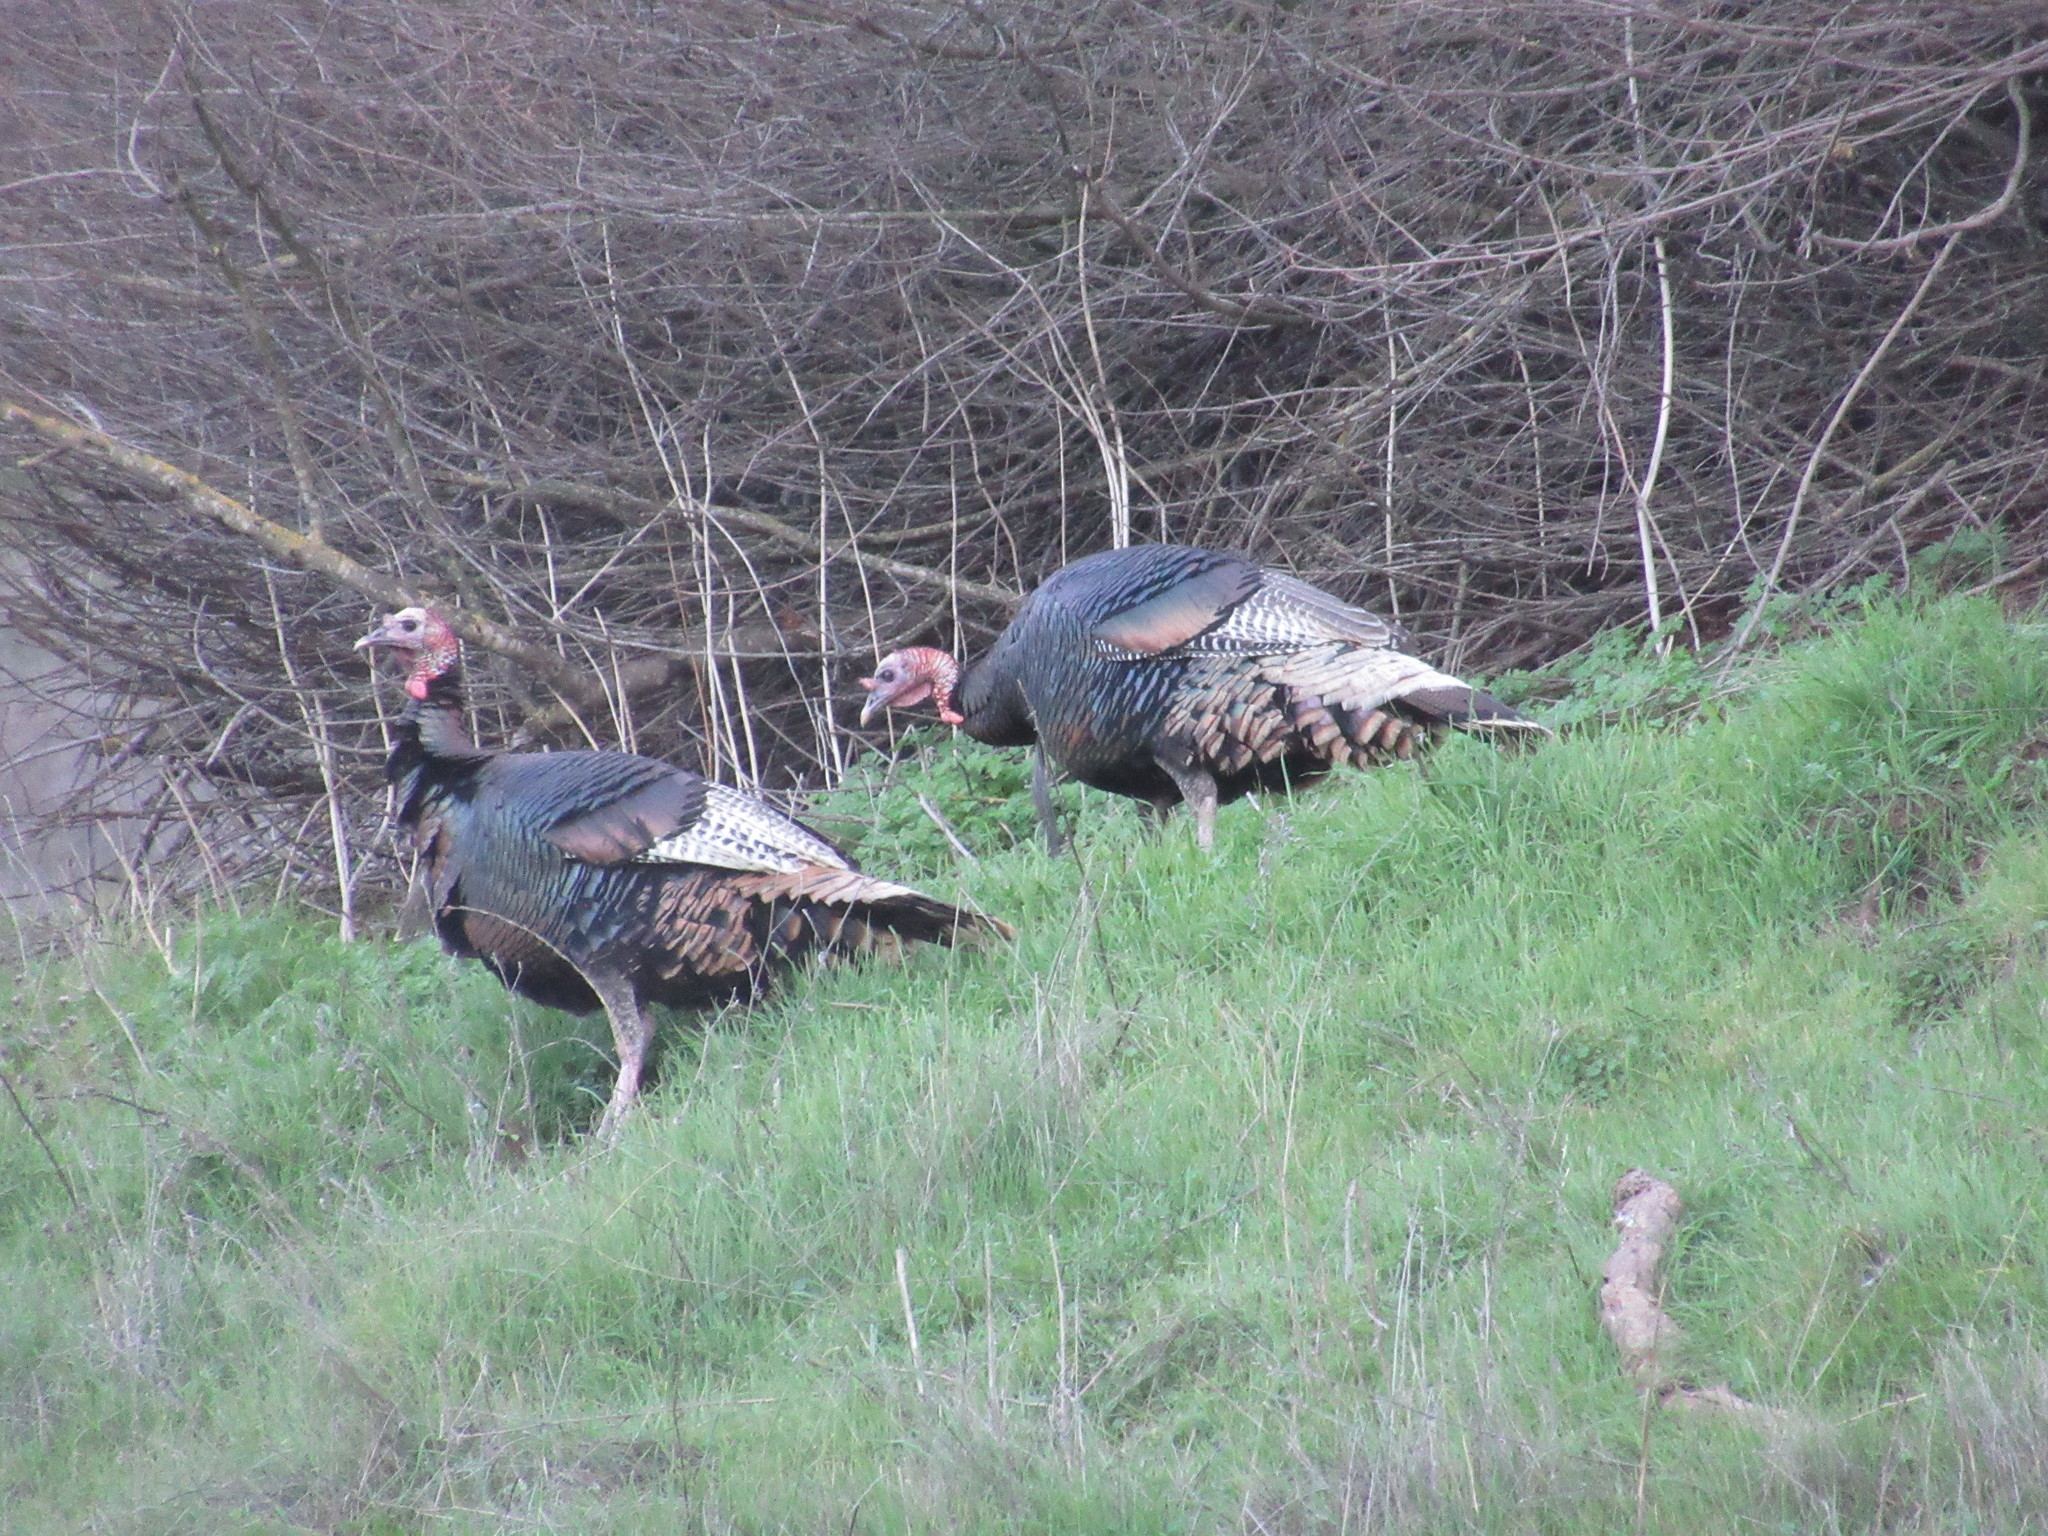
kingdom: Animalia
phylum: Chordata
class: Aves
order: Galliformes
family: Phasianidae
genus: Meleagris
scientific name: Meleagris gallopavo
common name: Wild turkey
